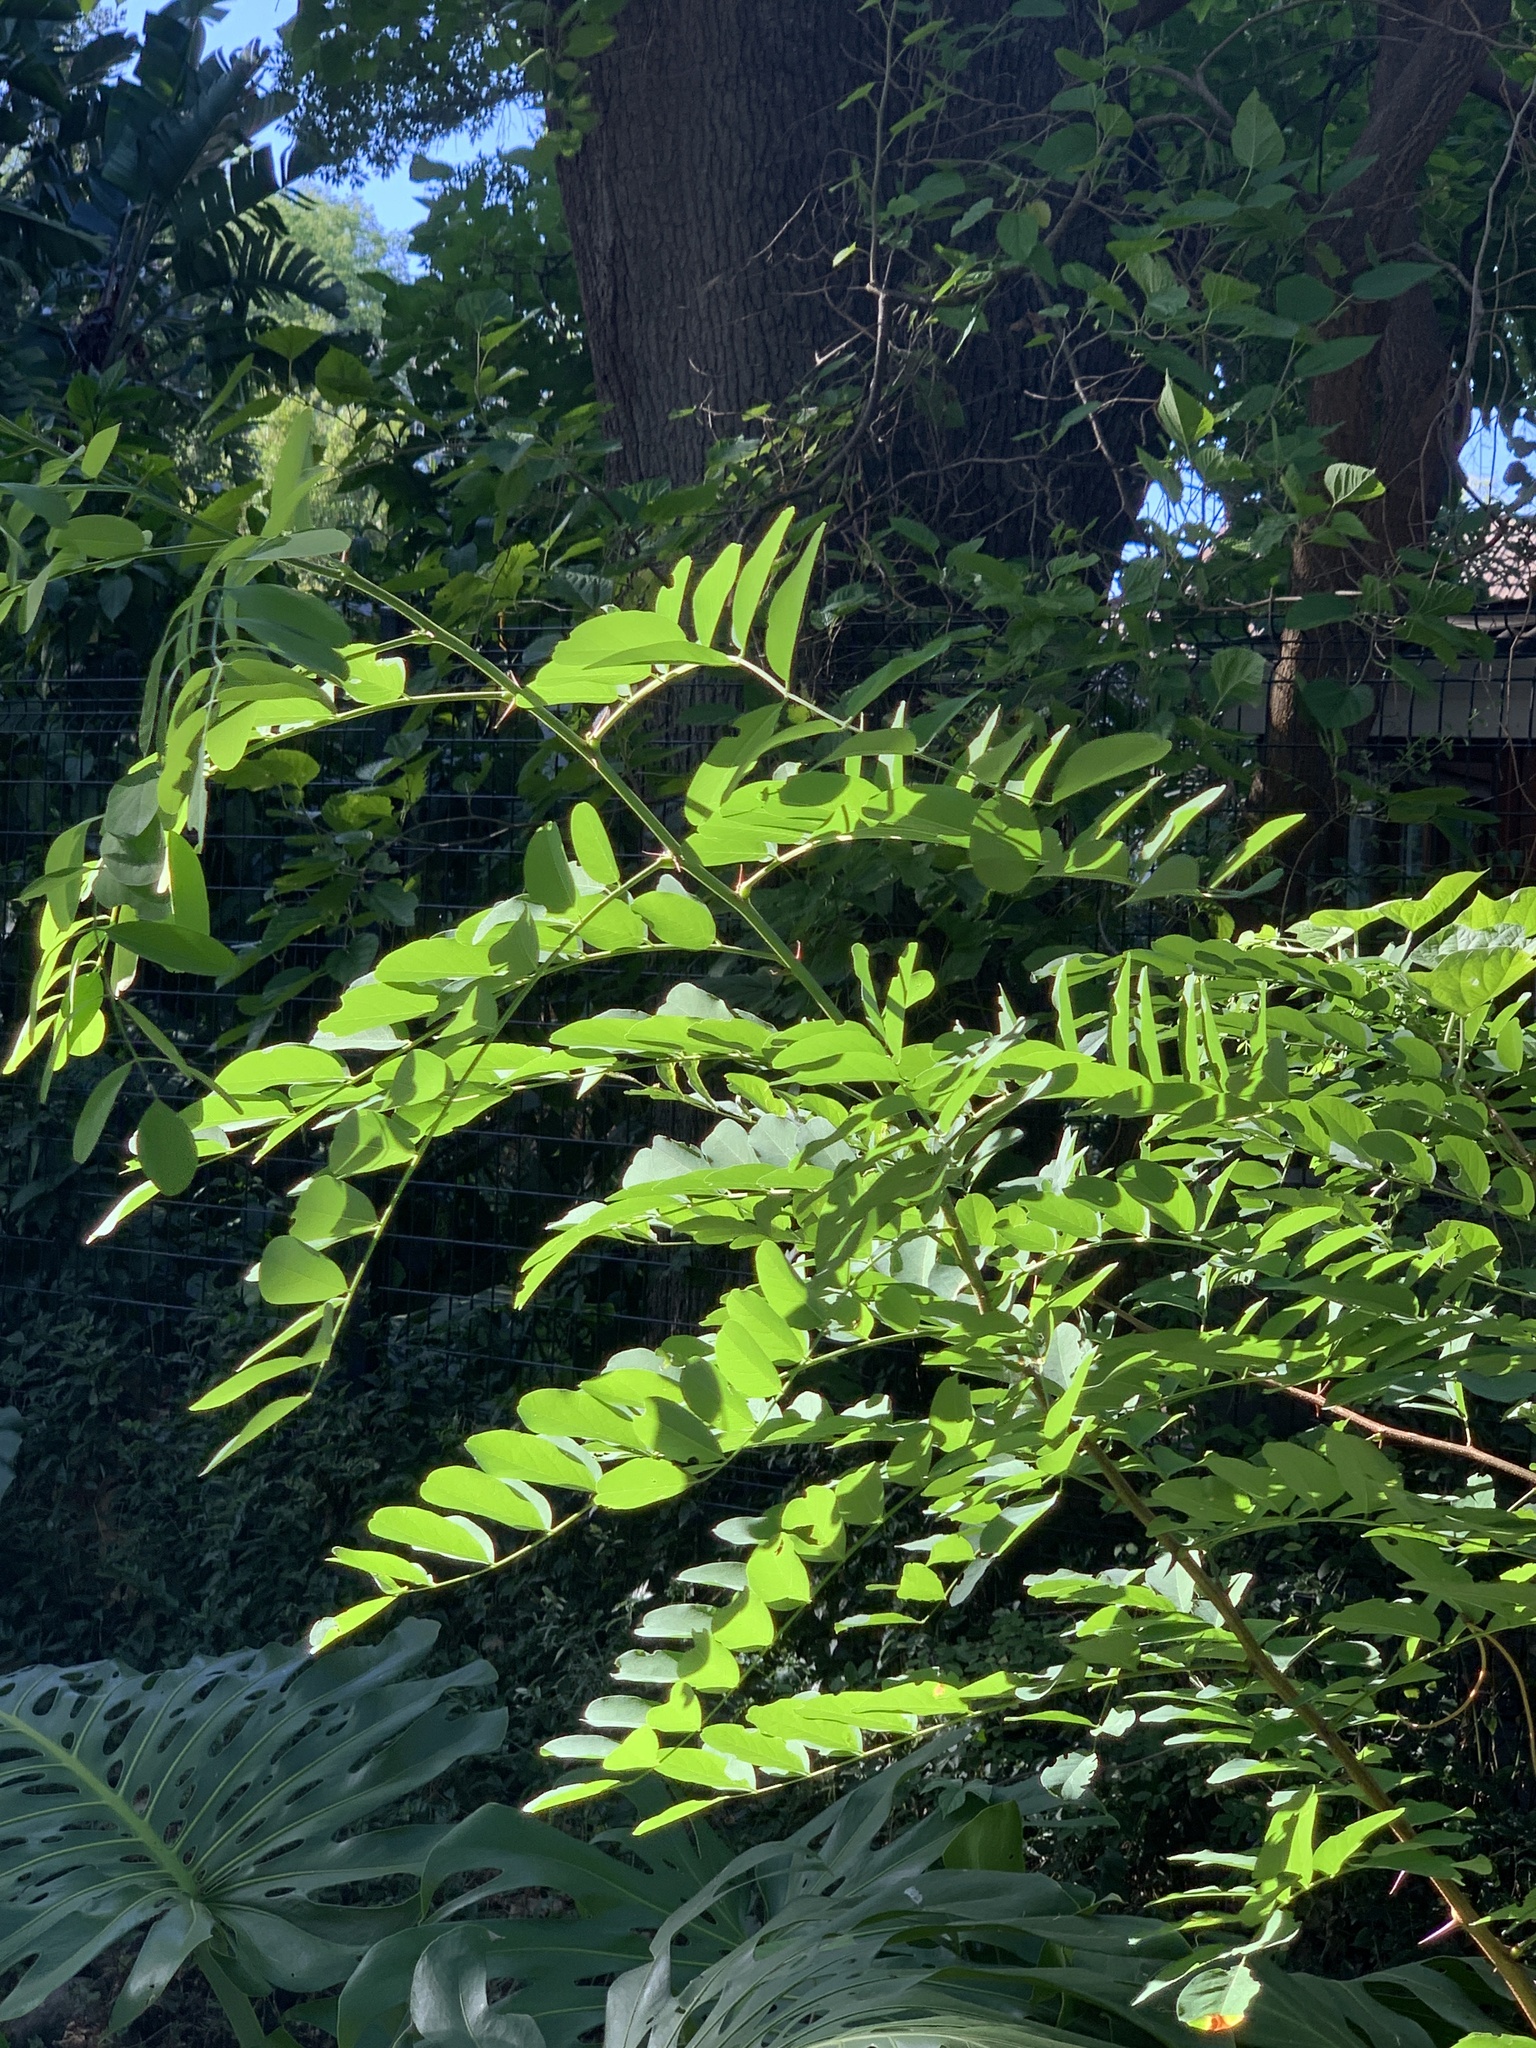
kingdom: Plantae
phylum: Tracheophyta
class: Magnoliopsida
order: Fabales
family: Fabaceae
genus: Robinia
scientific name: Robinia pseudoacacia
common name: Black locust
